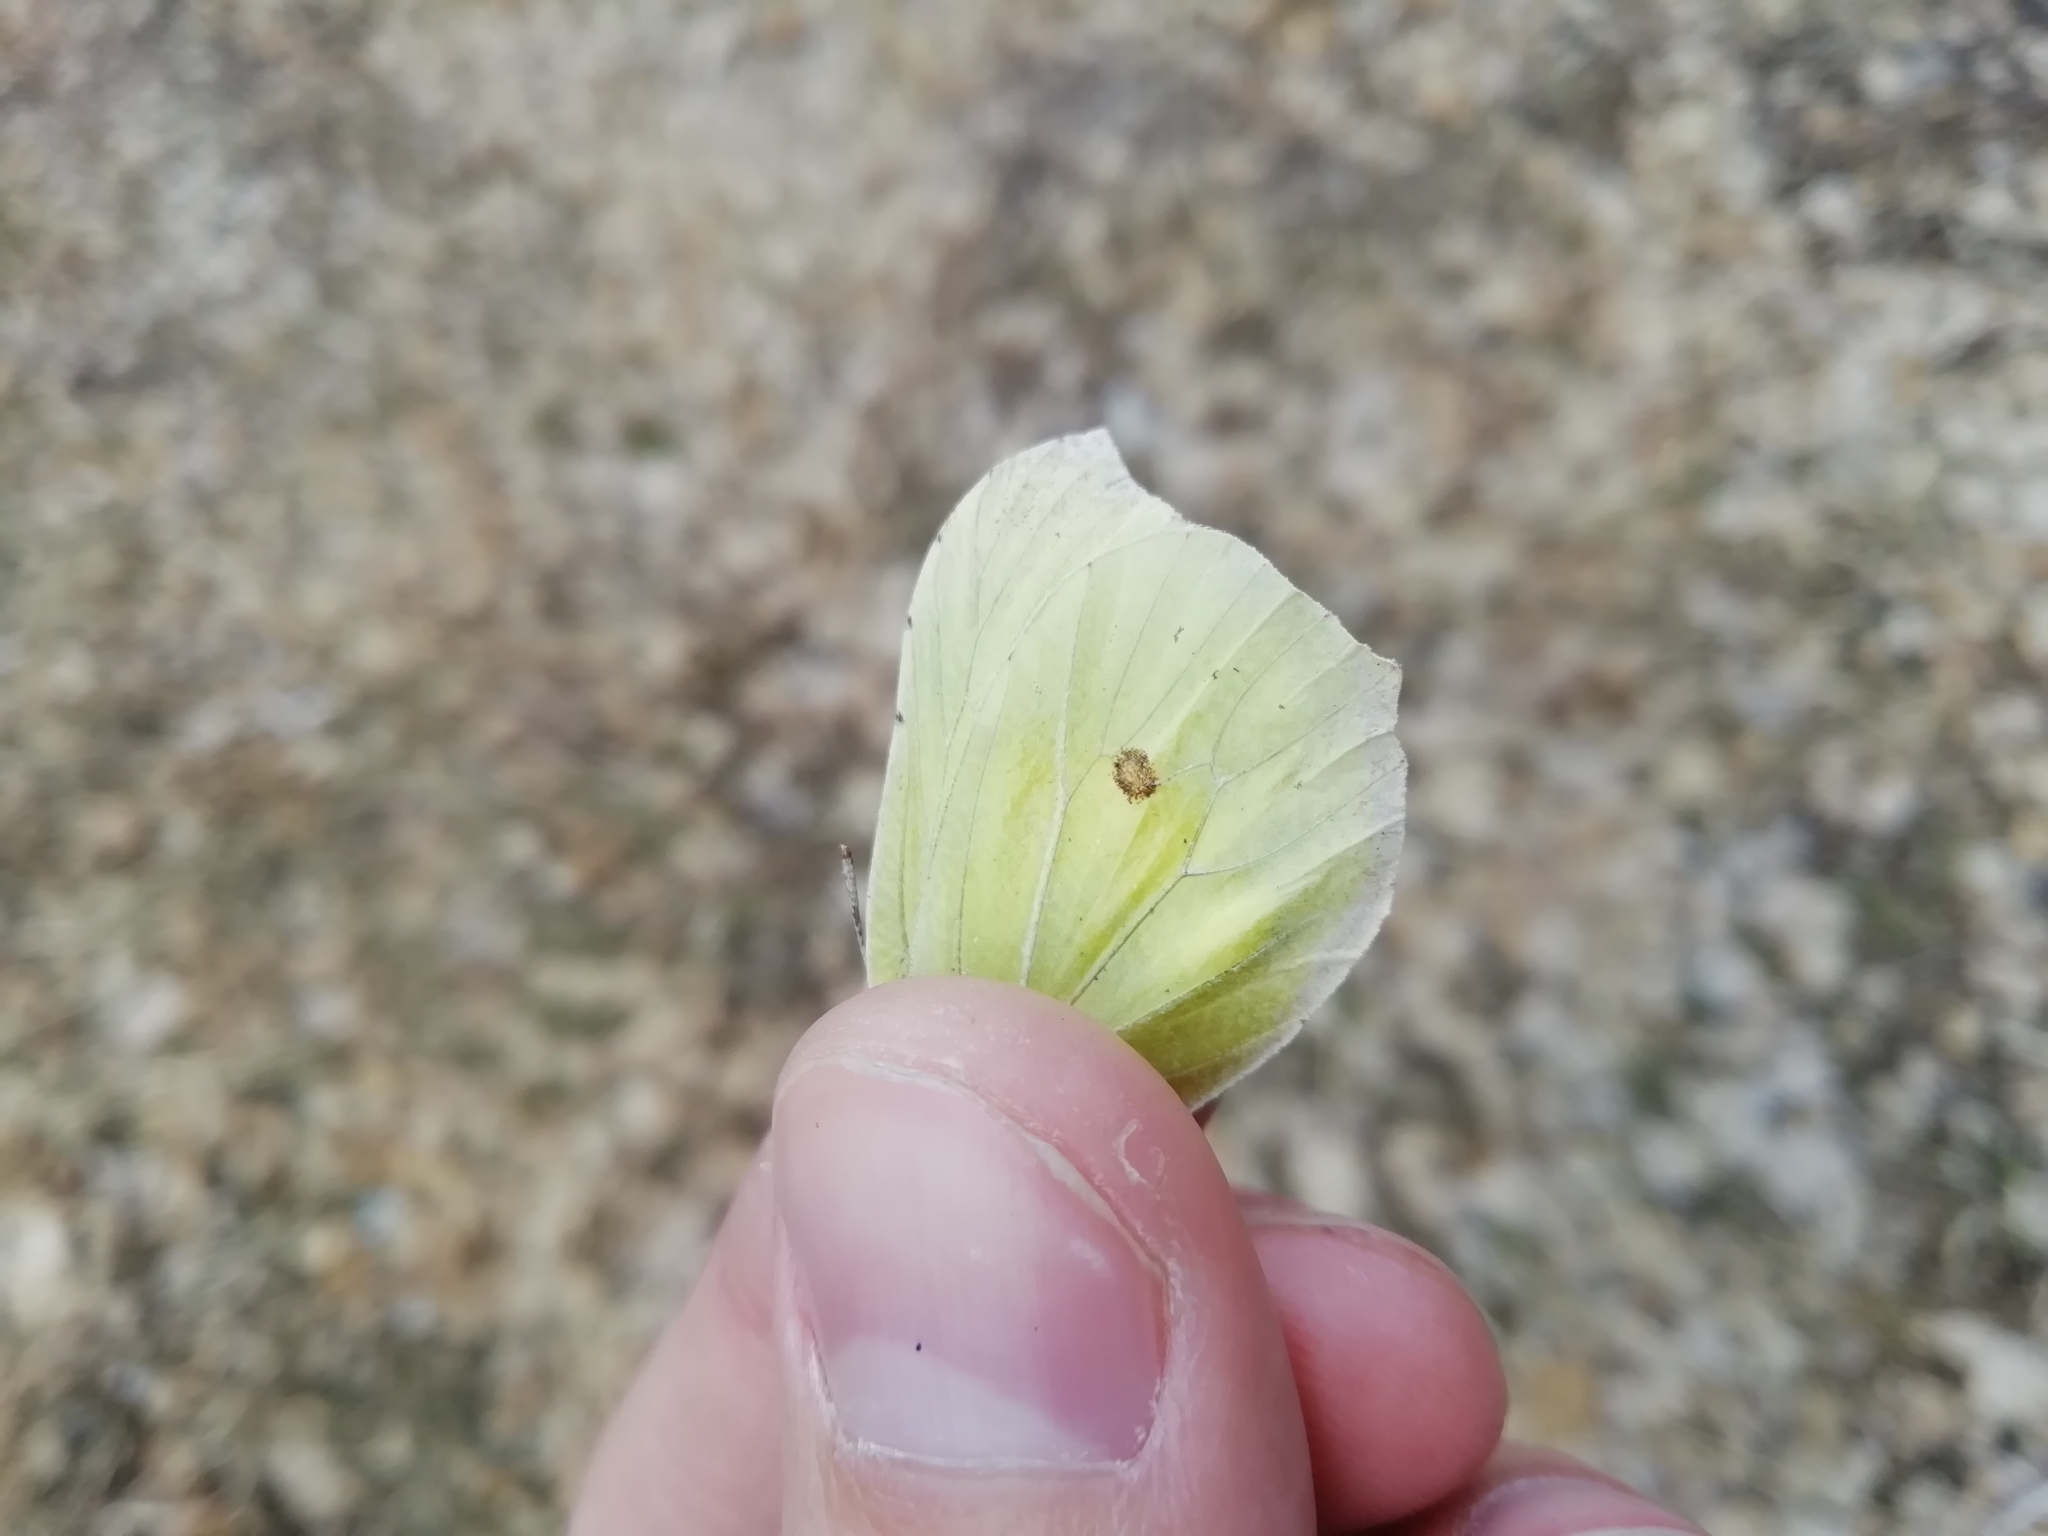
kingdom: Animalia
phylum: Arthropoda
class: Insecta
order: Lepidoptera
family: Pieridae
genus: Gonepteryx
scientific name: Gonepteryx rhamni
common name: Brimstone
